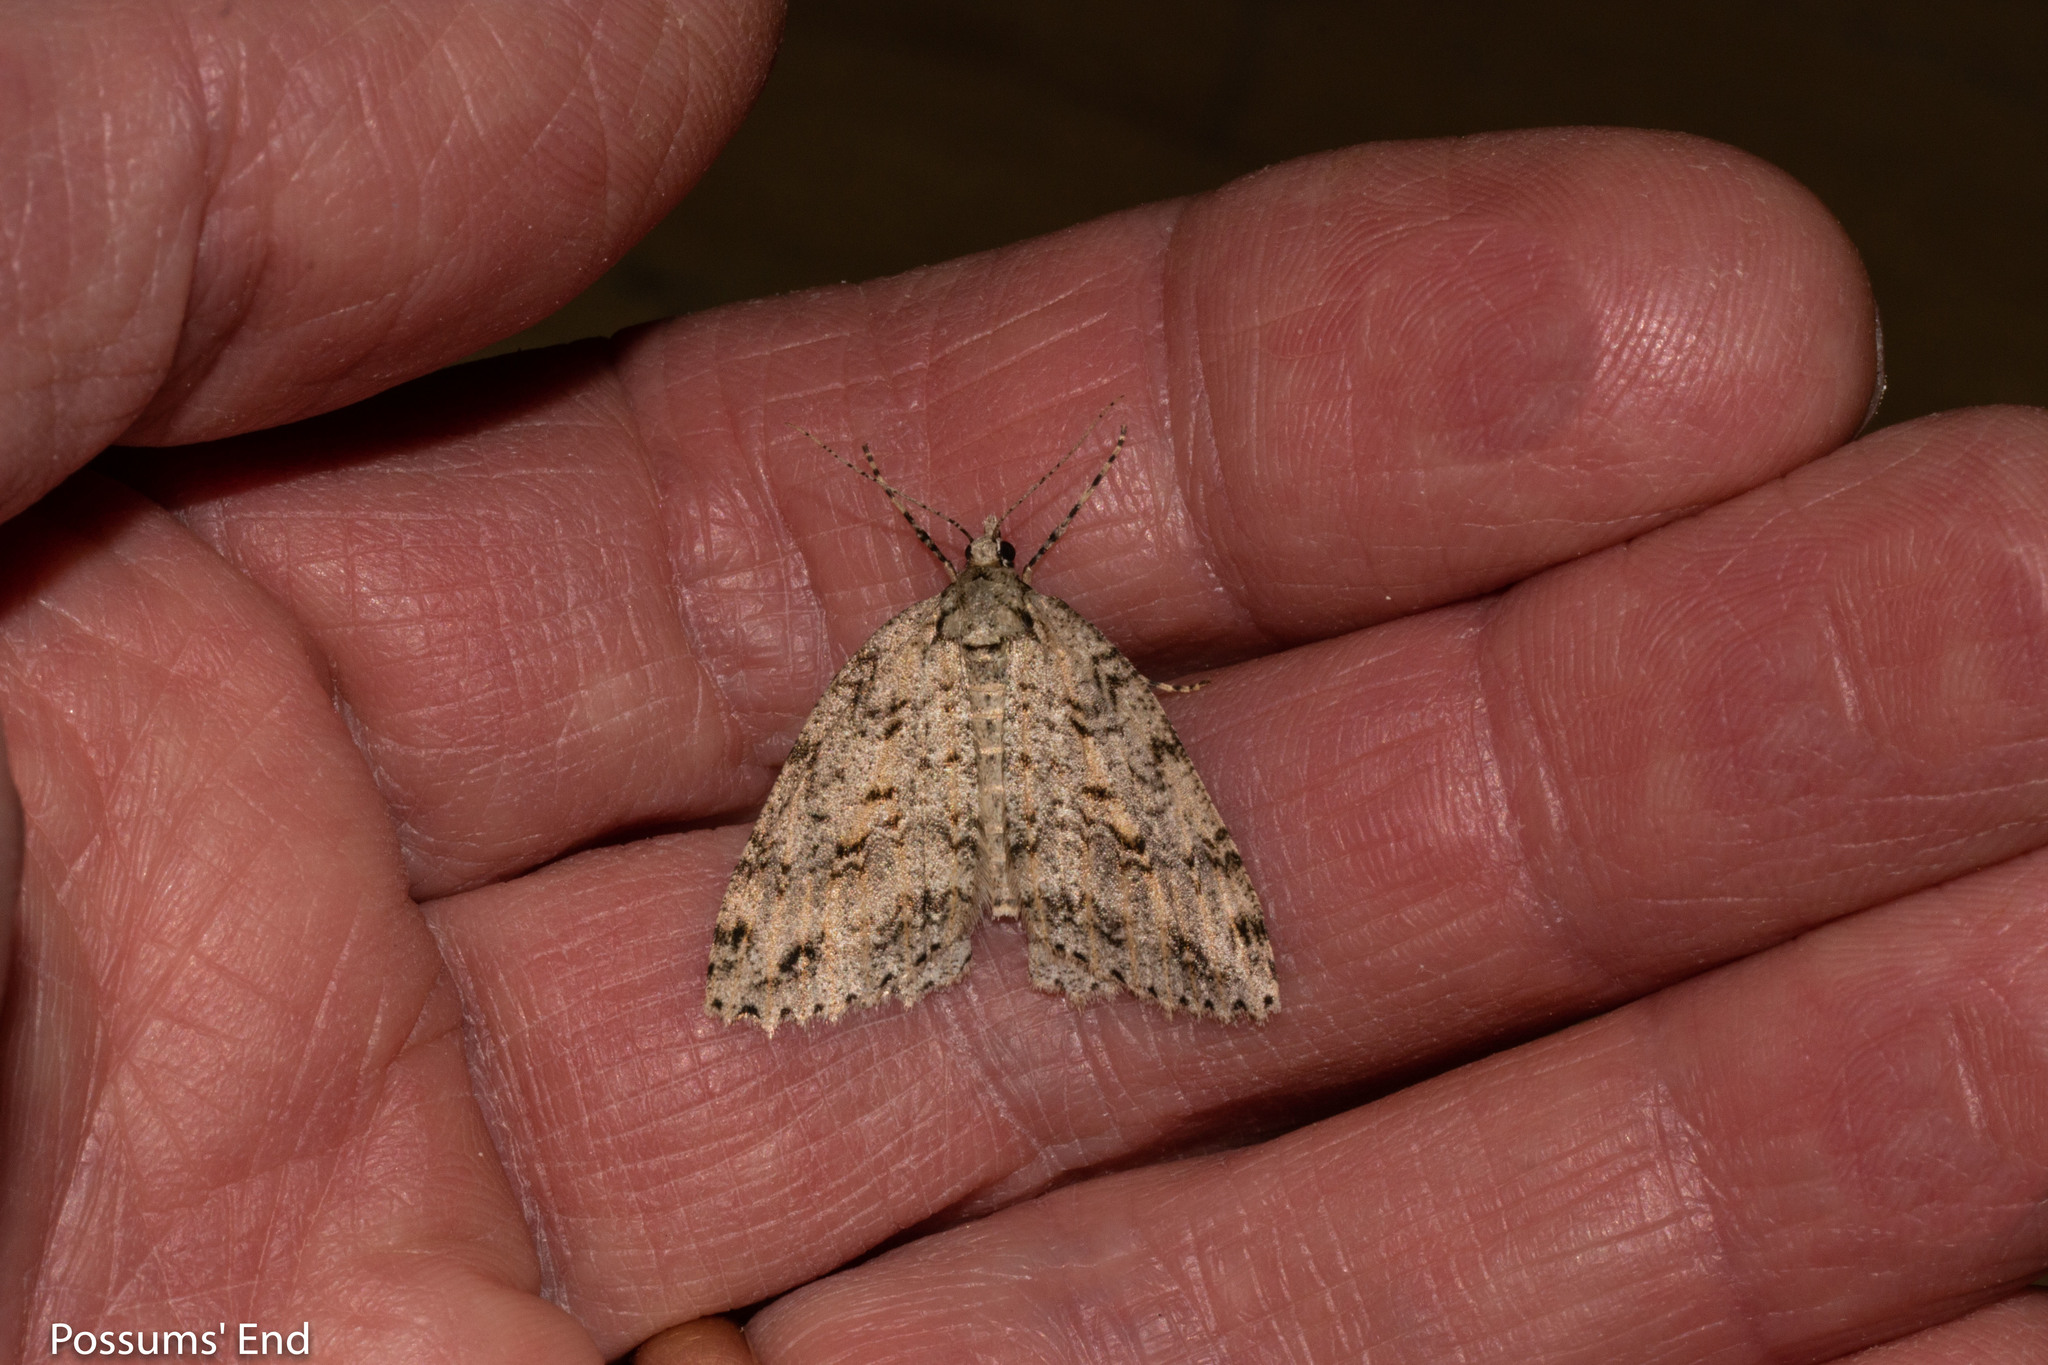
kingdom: Animalia
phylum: Arthropoda
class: Insecta
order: Lepidoptera
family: Geometridae
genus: Pseudocoremia
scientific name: Pseudocoremia rudisata
